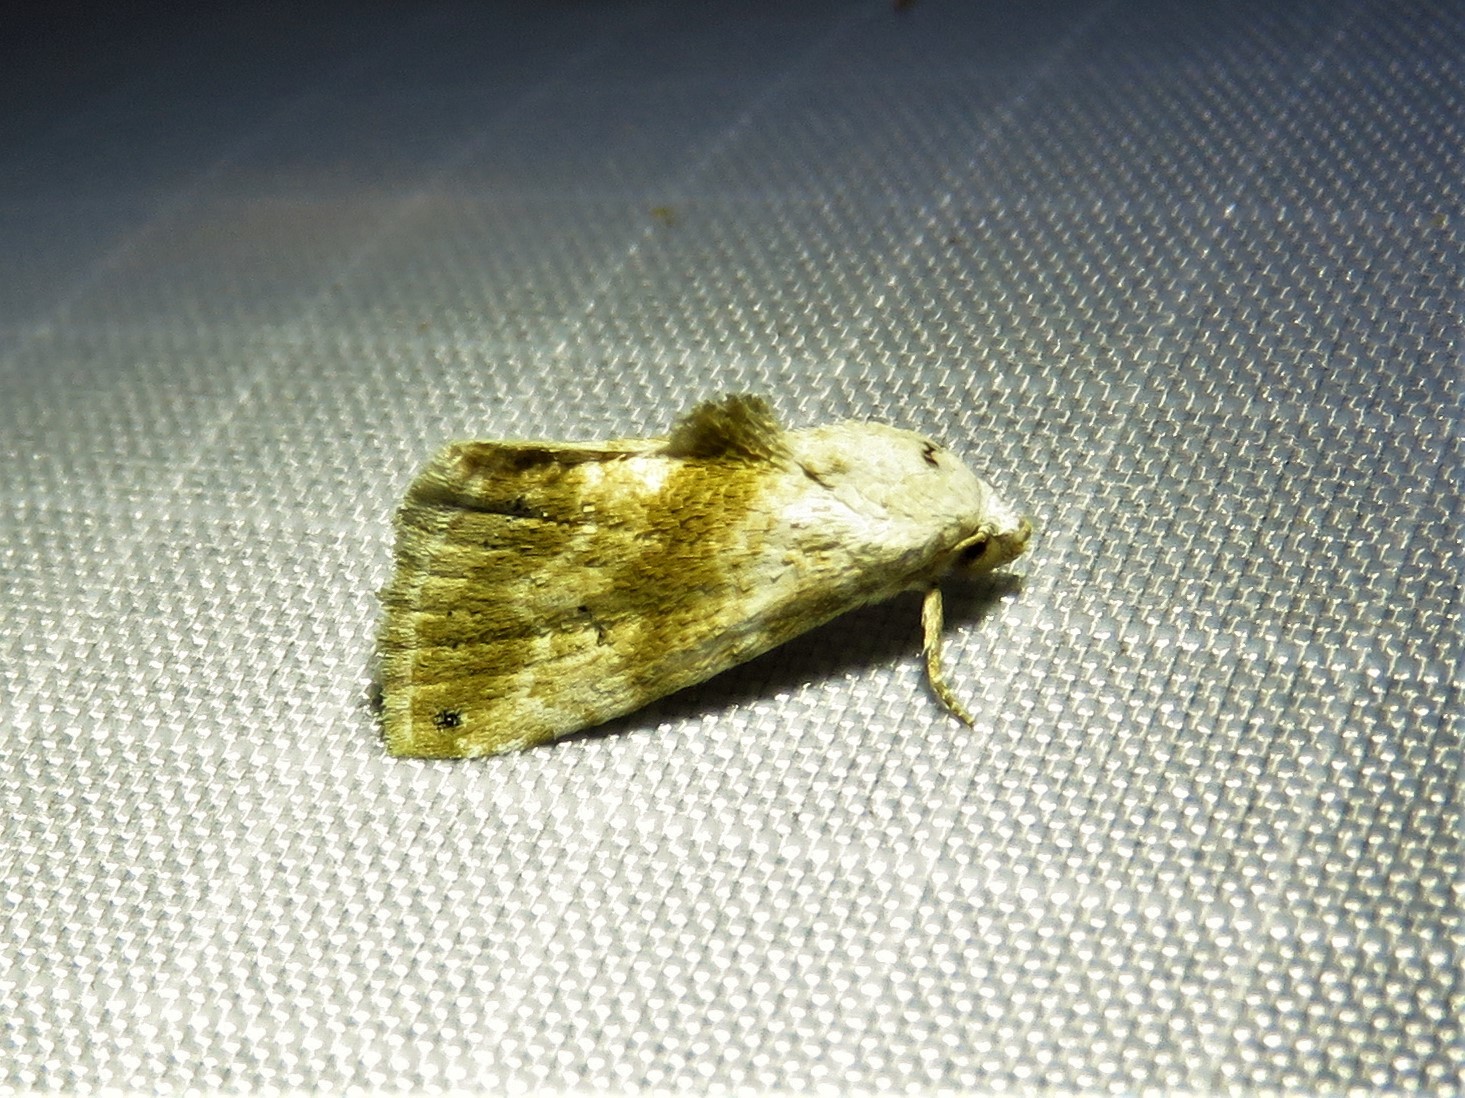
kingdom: Animalia
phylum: Arthropoda
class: Insecta
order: Lepidoptera
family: Noctuidae
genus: Eublemma
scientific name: Eublemma minima
